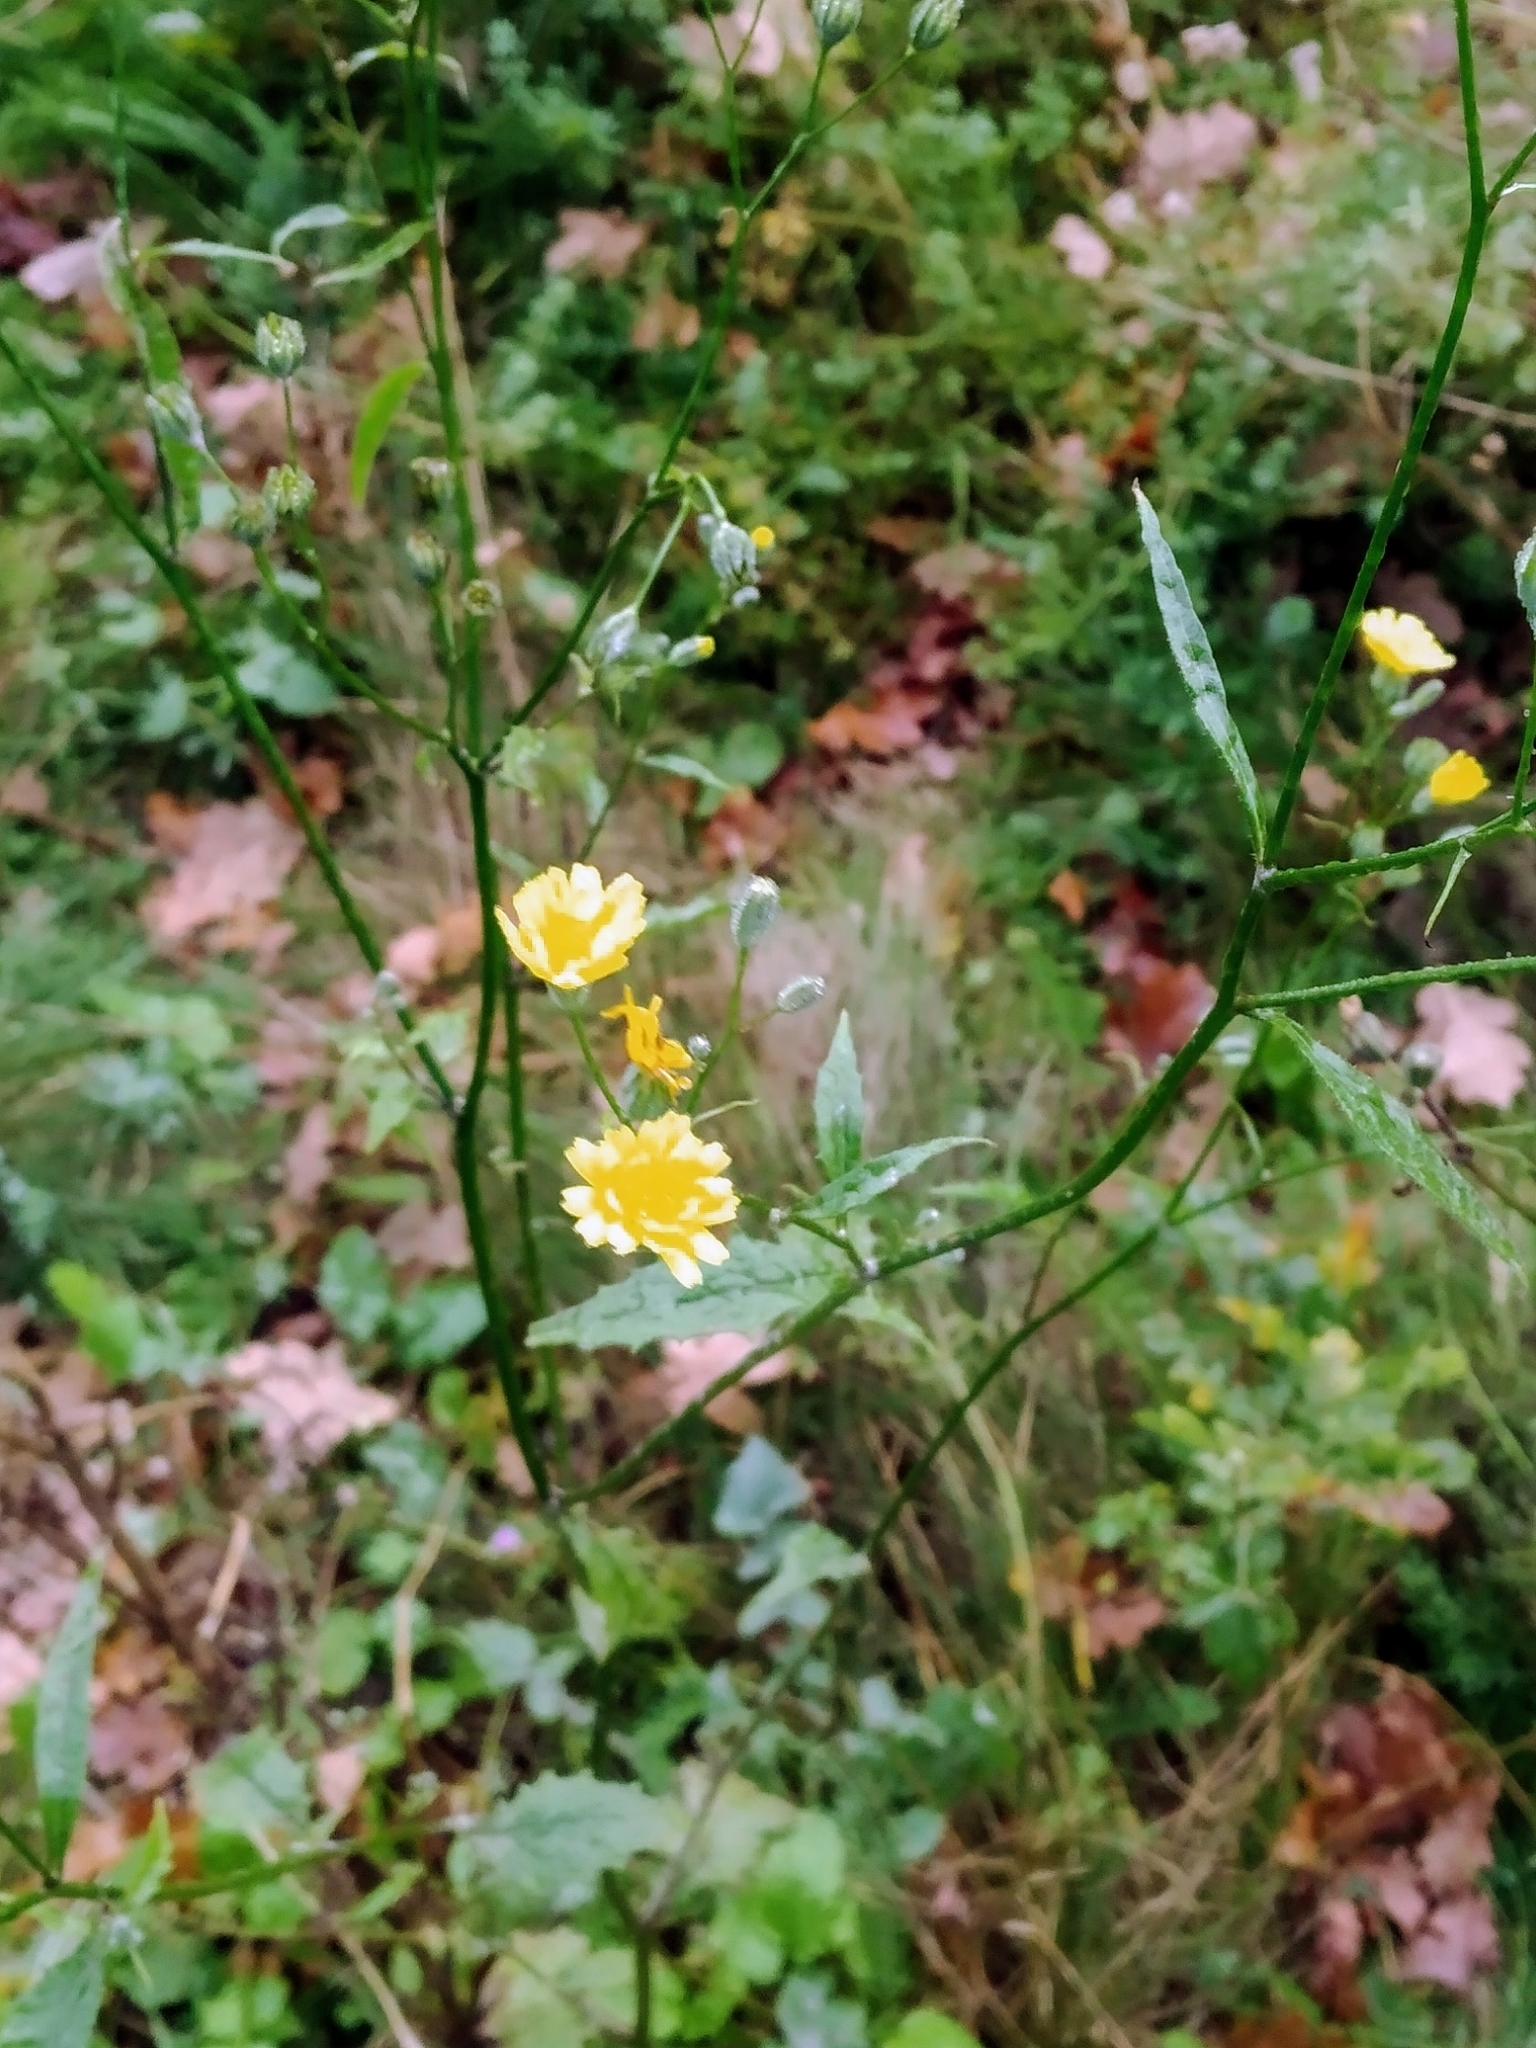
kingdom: Plantae
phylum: Tracheophyta
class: Magnoliopsida
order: Asterales
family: Asteraceae
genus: Lapsana
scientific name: Lapsana communis
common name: Nipplewort
